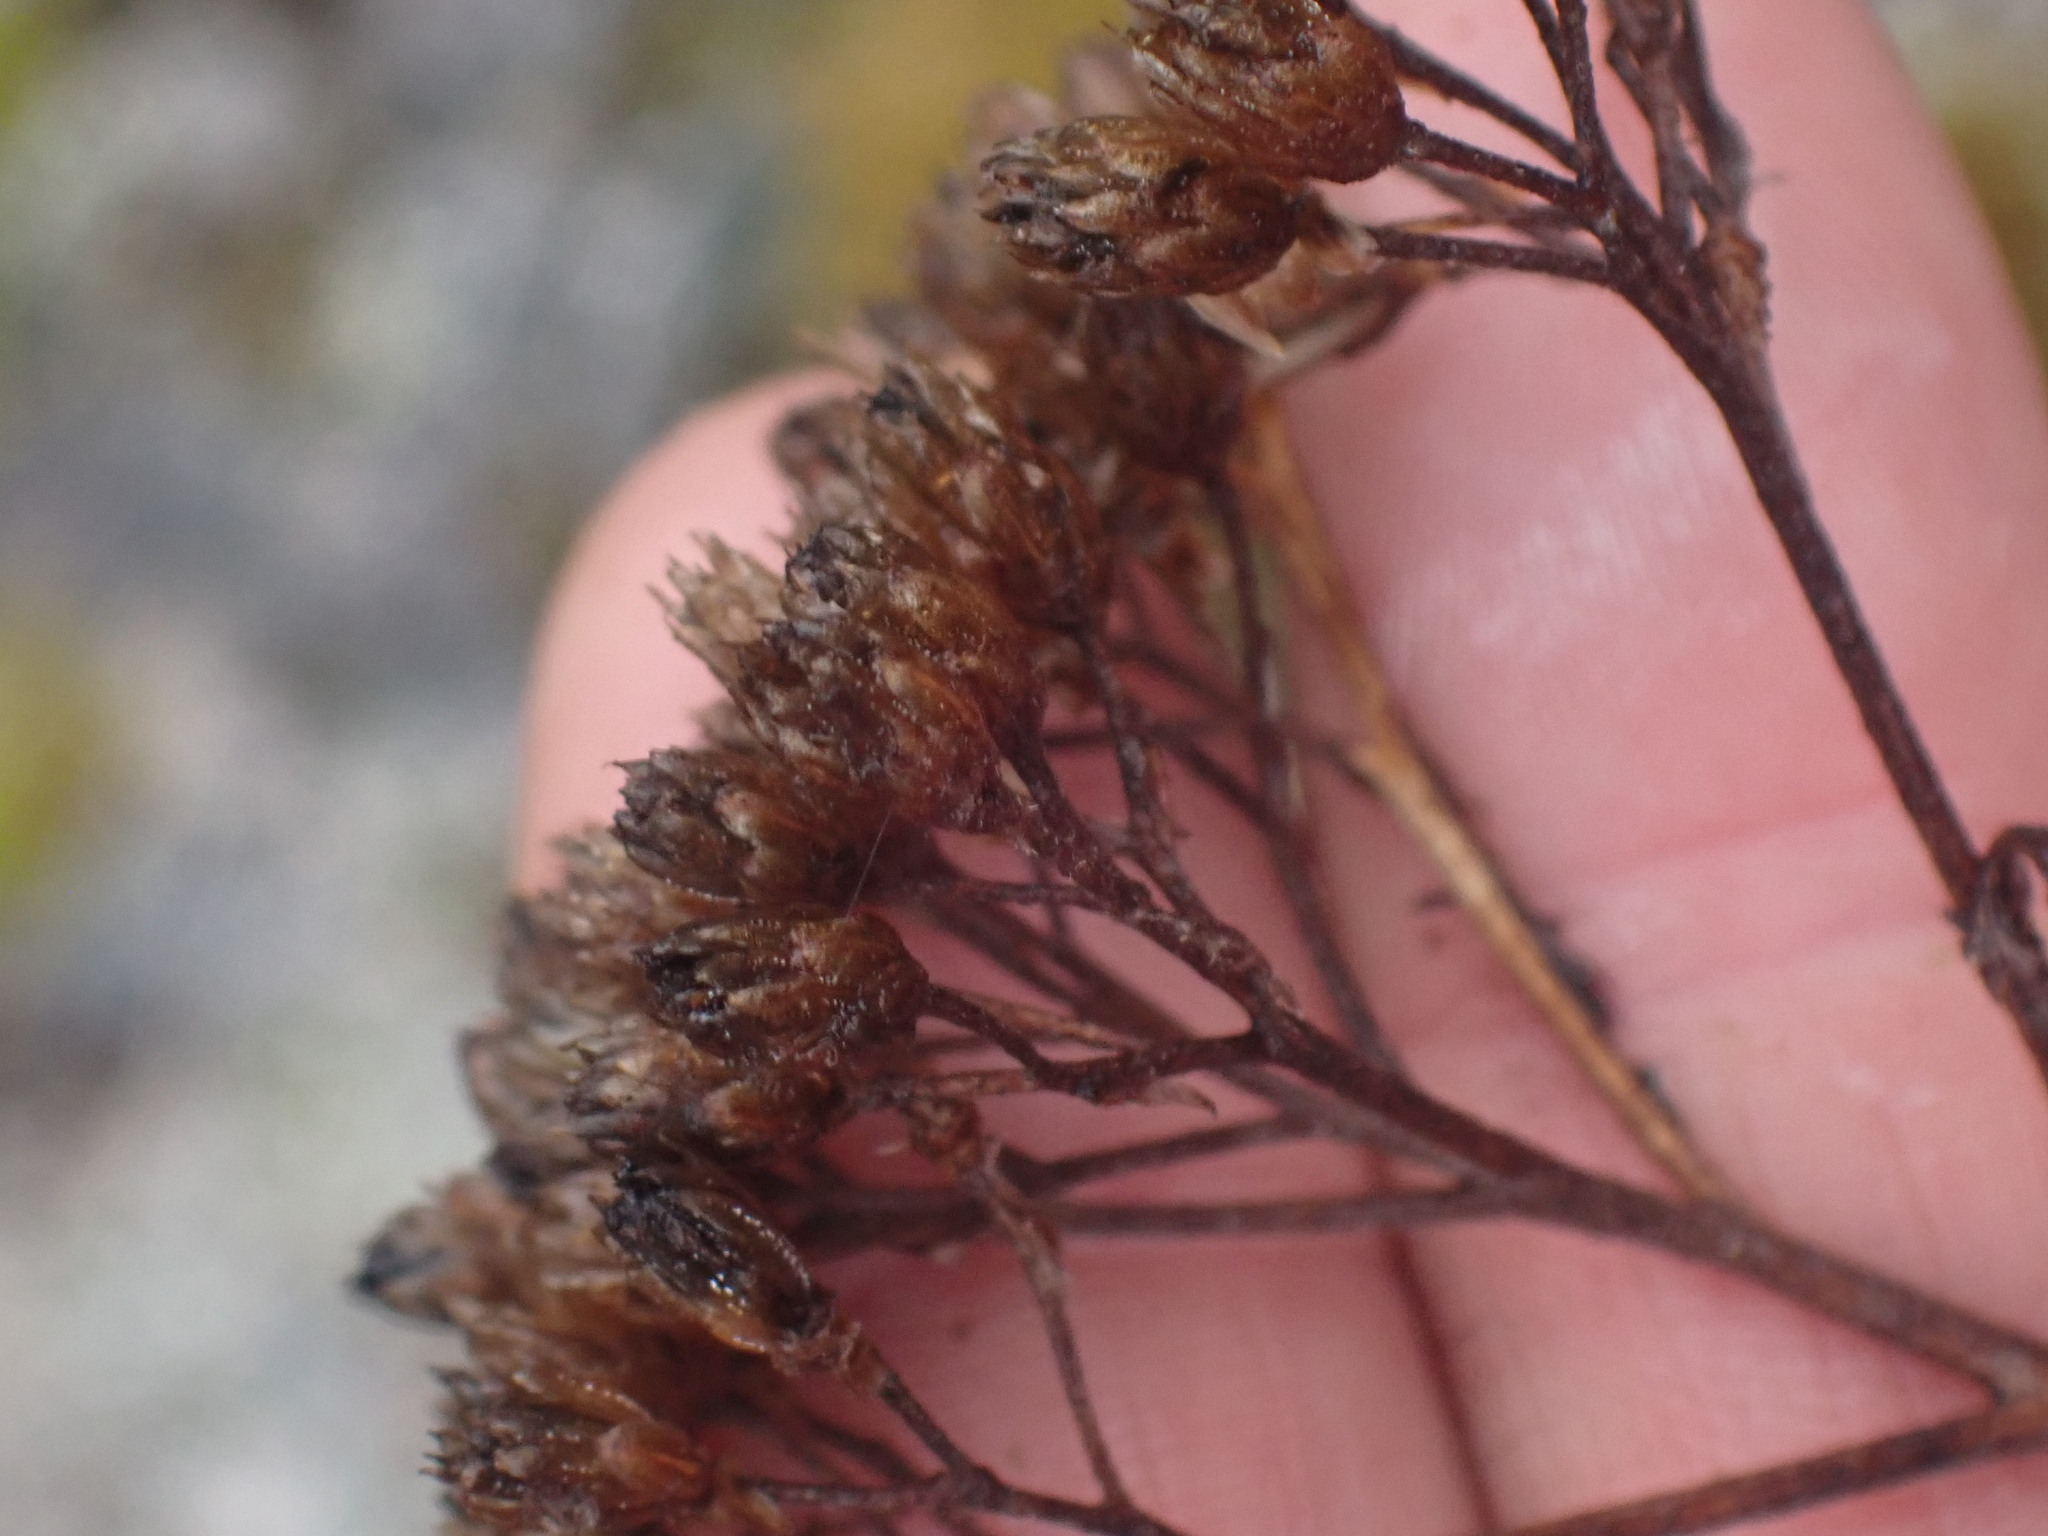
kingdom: Plantae
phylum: Tracheophyta
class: Magnoliopsida
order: Asterales
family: Asteraceae
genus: Achillea
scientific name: Achillea millefolium
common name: Yarrow
